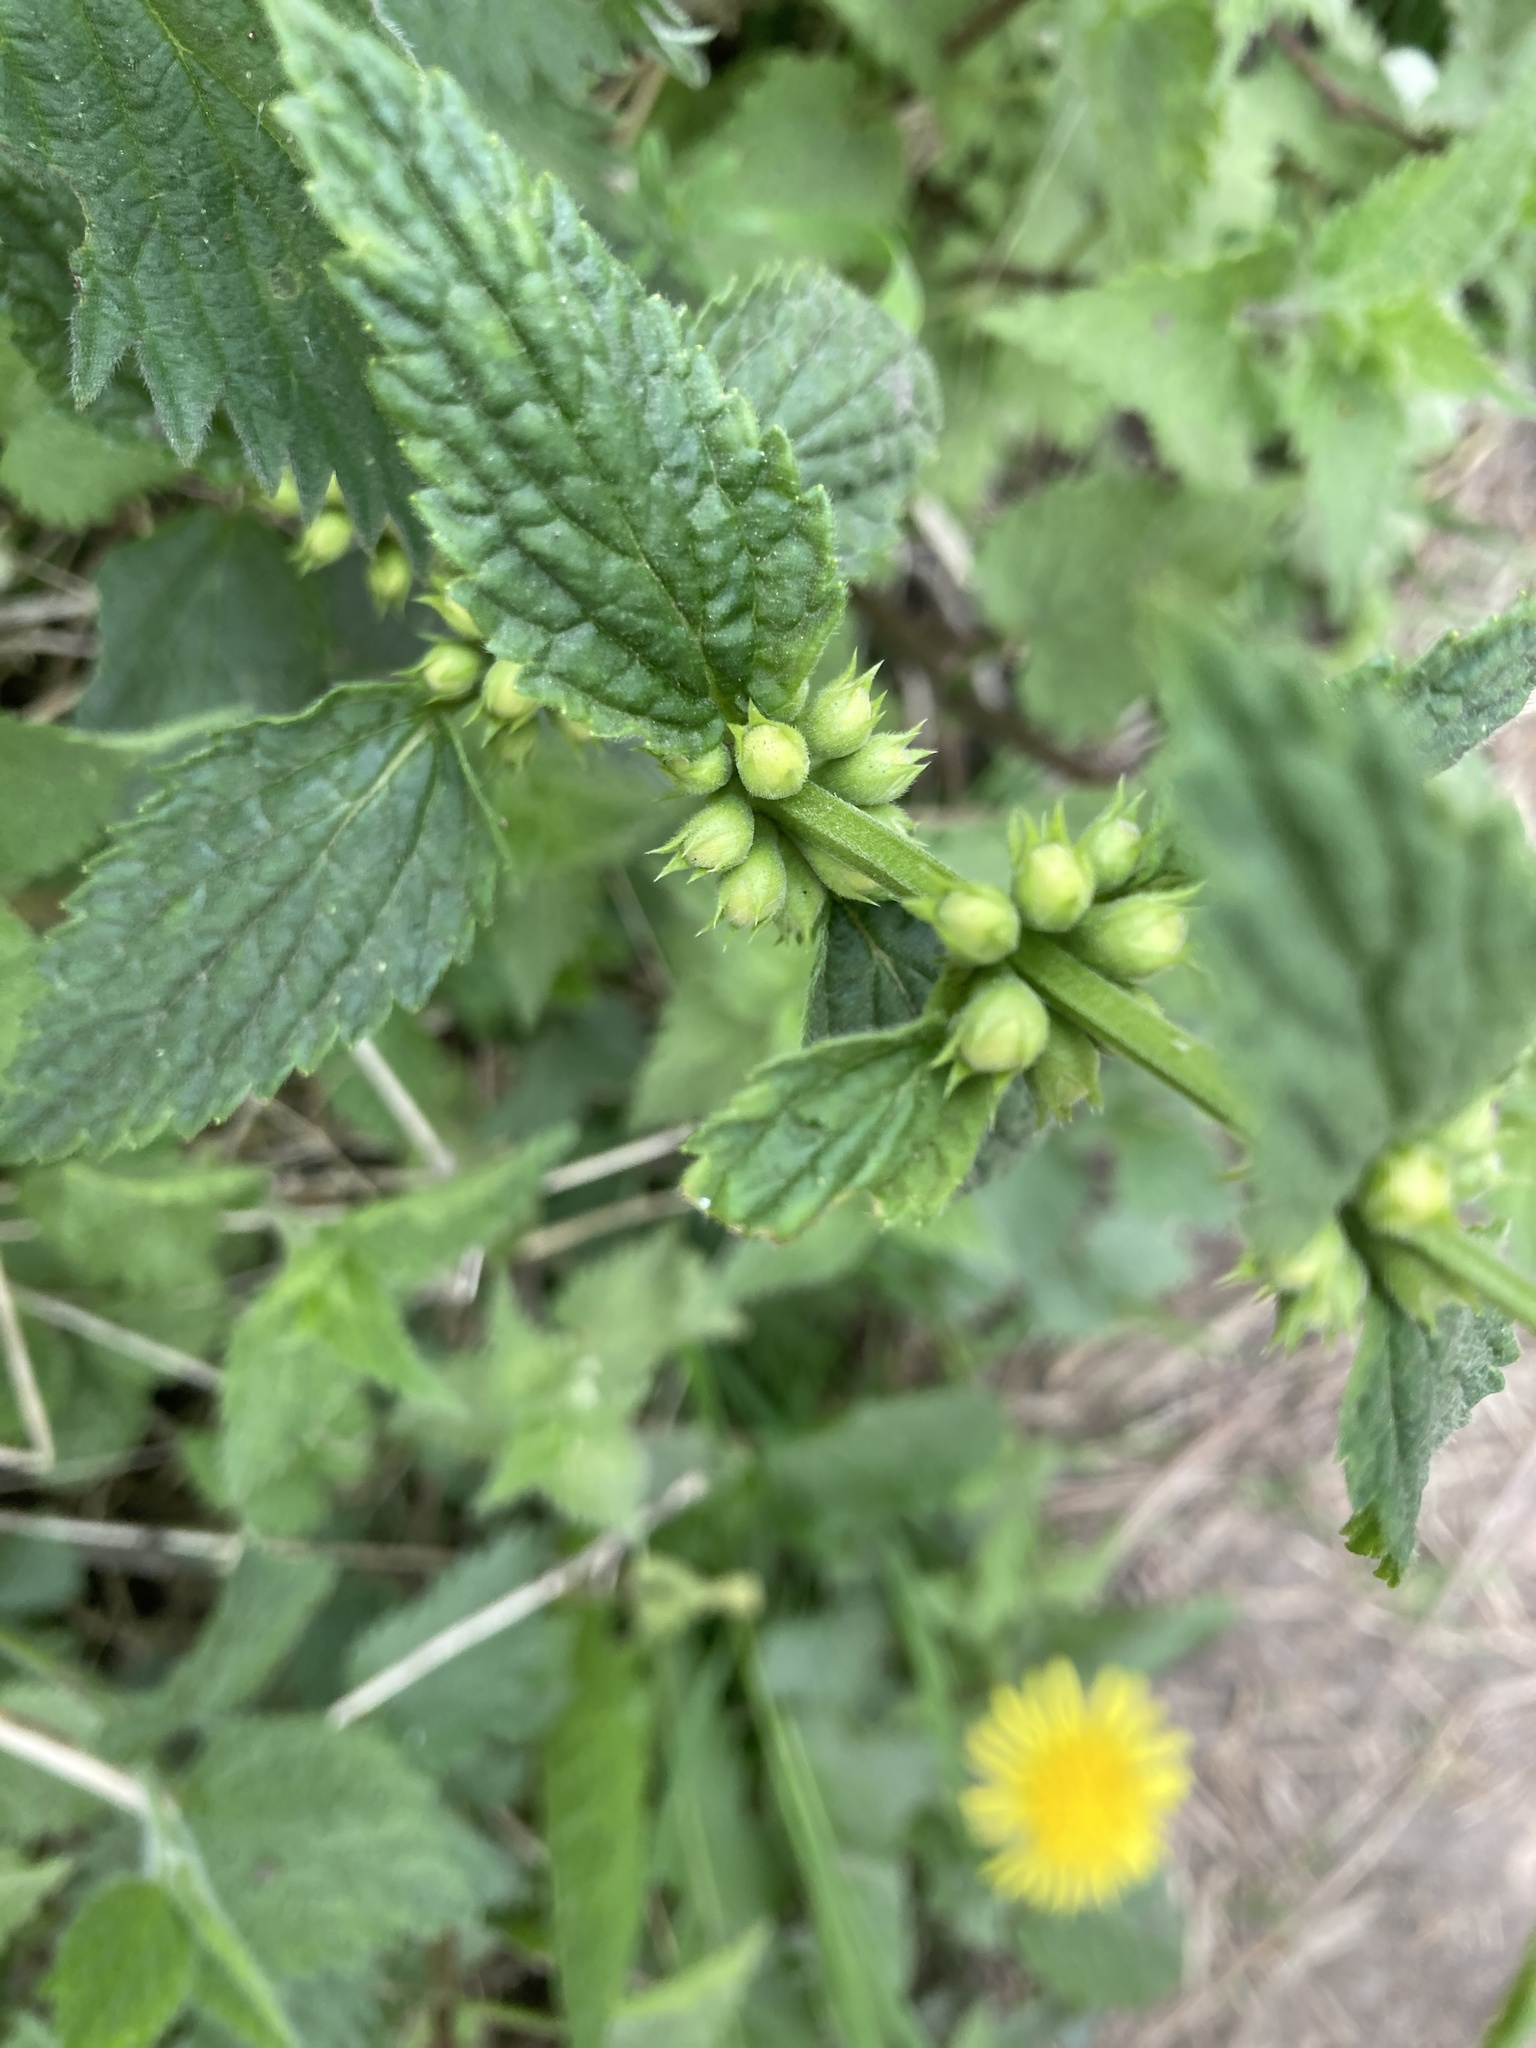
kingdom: Plantae
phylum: Tracheophyta
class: Magnoliopsida
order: Lamiales
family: Lamiaceae
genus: Lamium
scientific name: Lamium galeobdolon
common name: Yellow archangel
